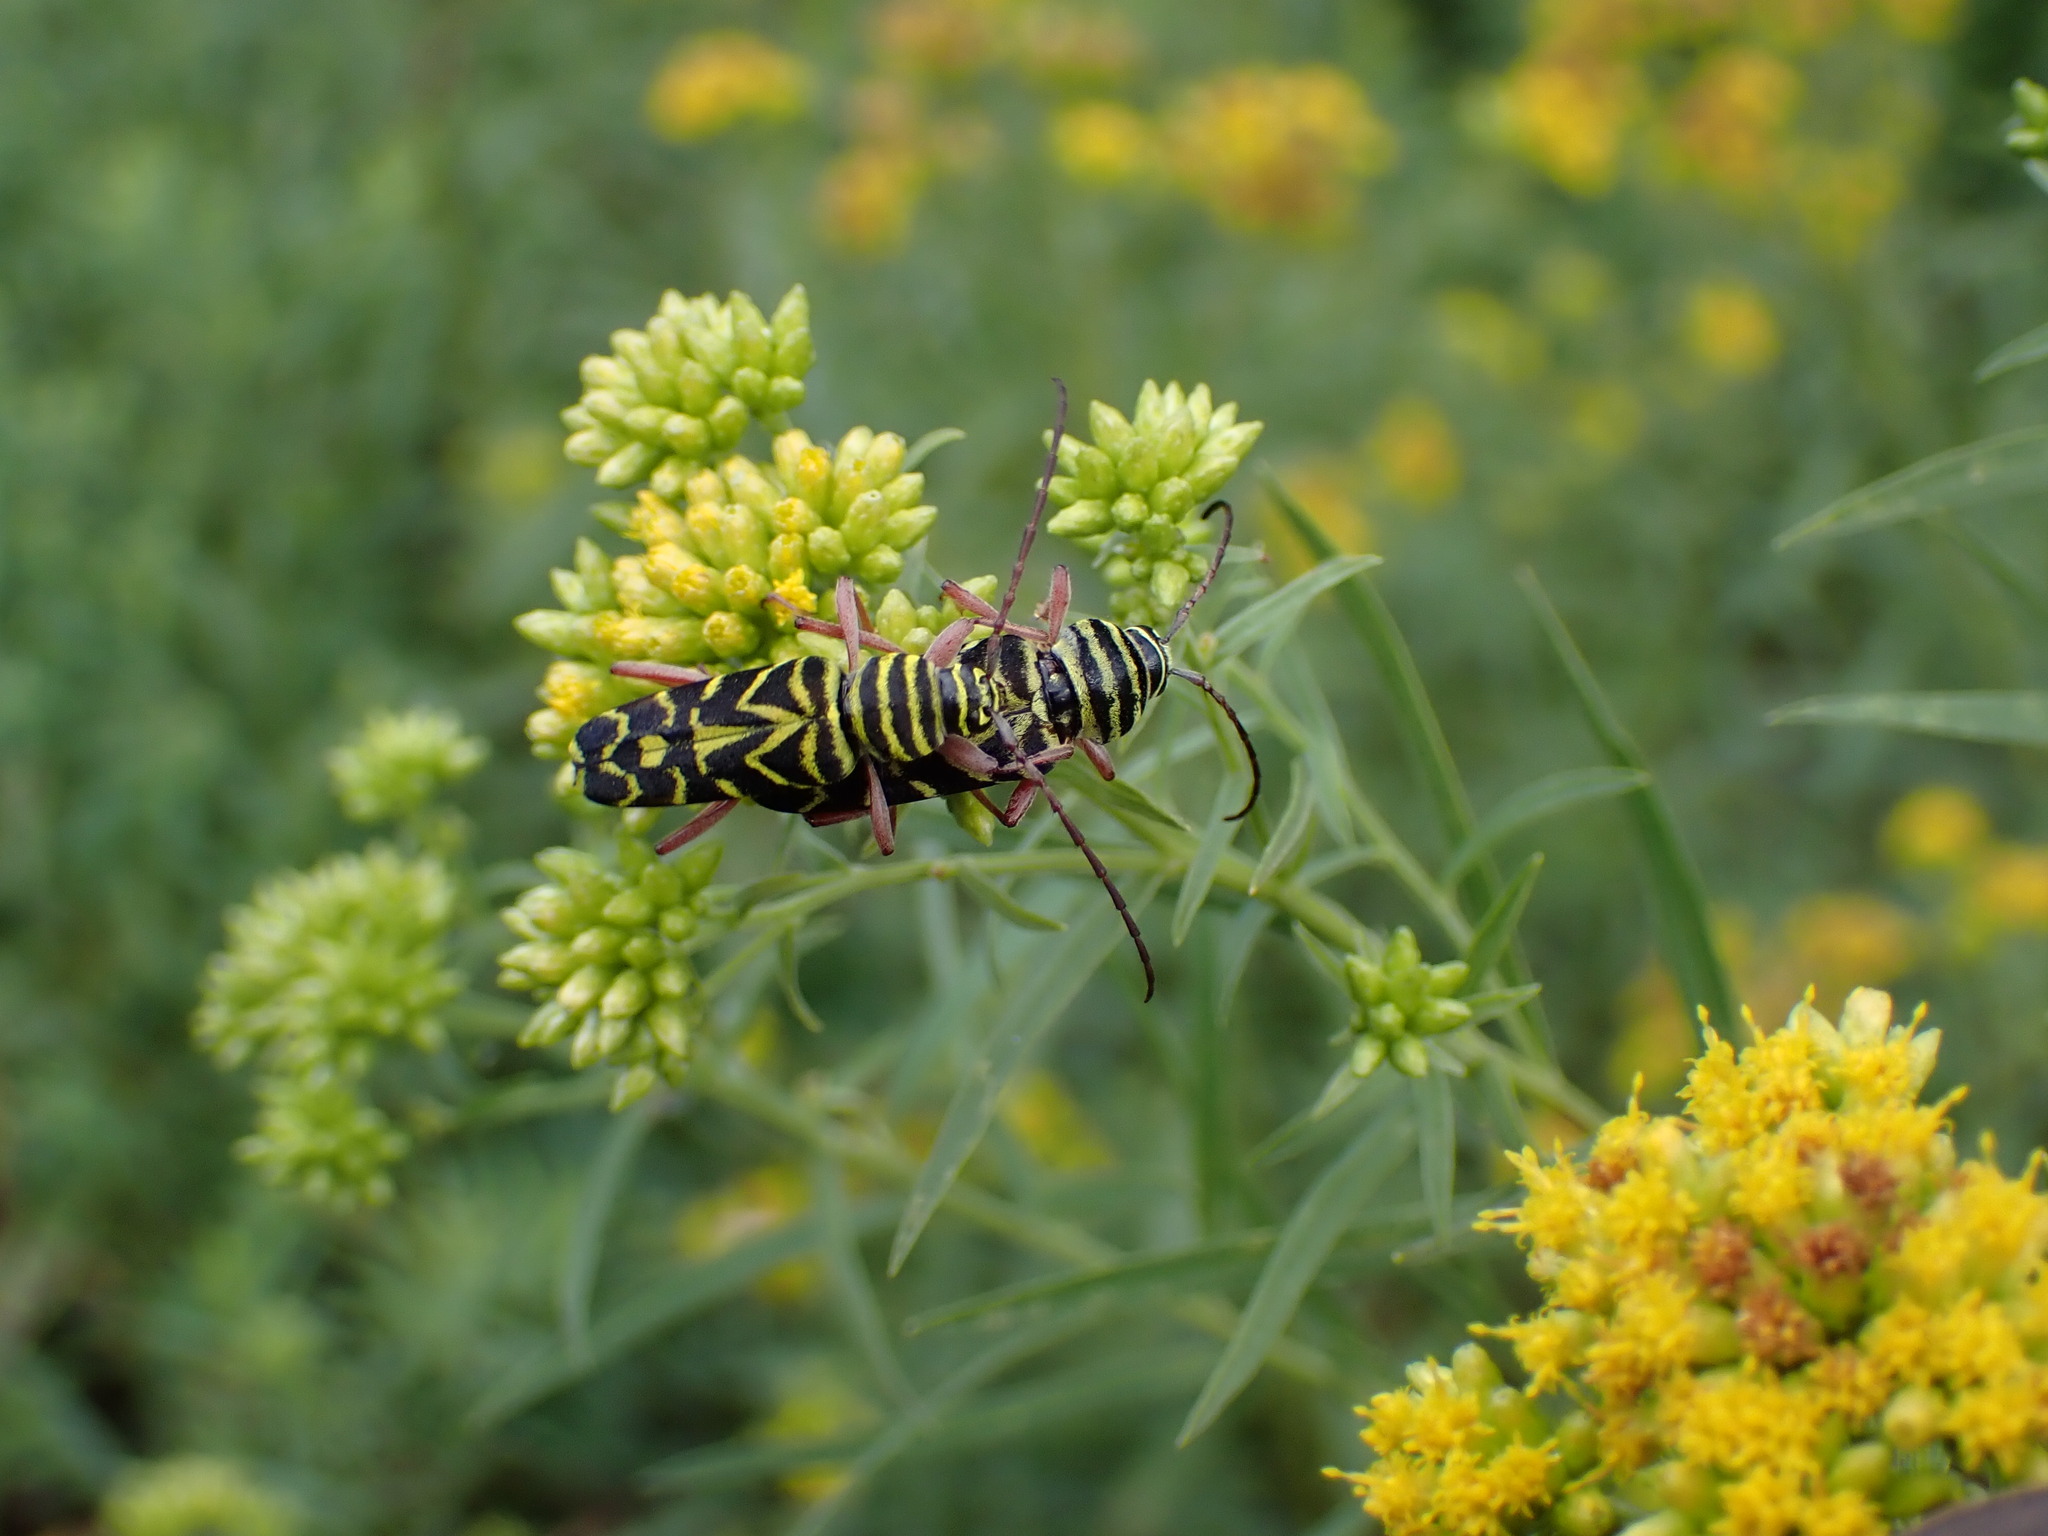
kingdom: Animalia
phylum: Arthropoda
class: Insecta
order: Coleoptera
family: Cerambycidae
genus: Megacyllene
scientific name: Megacyllene robiniae
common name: Locust borer
